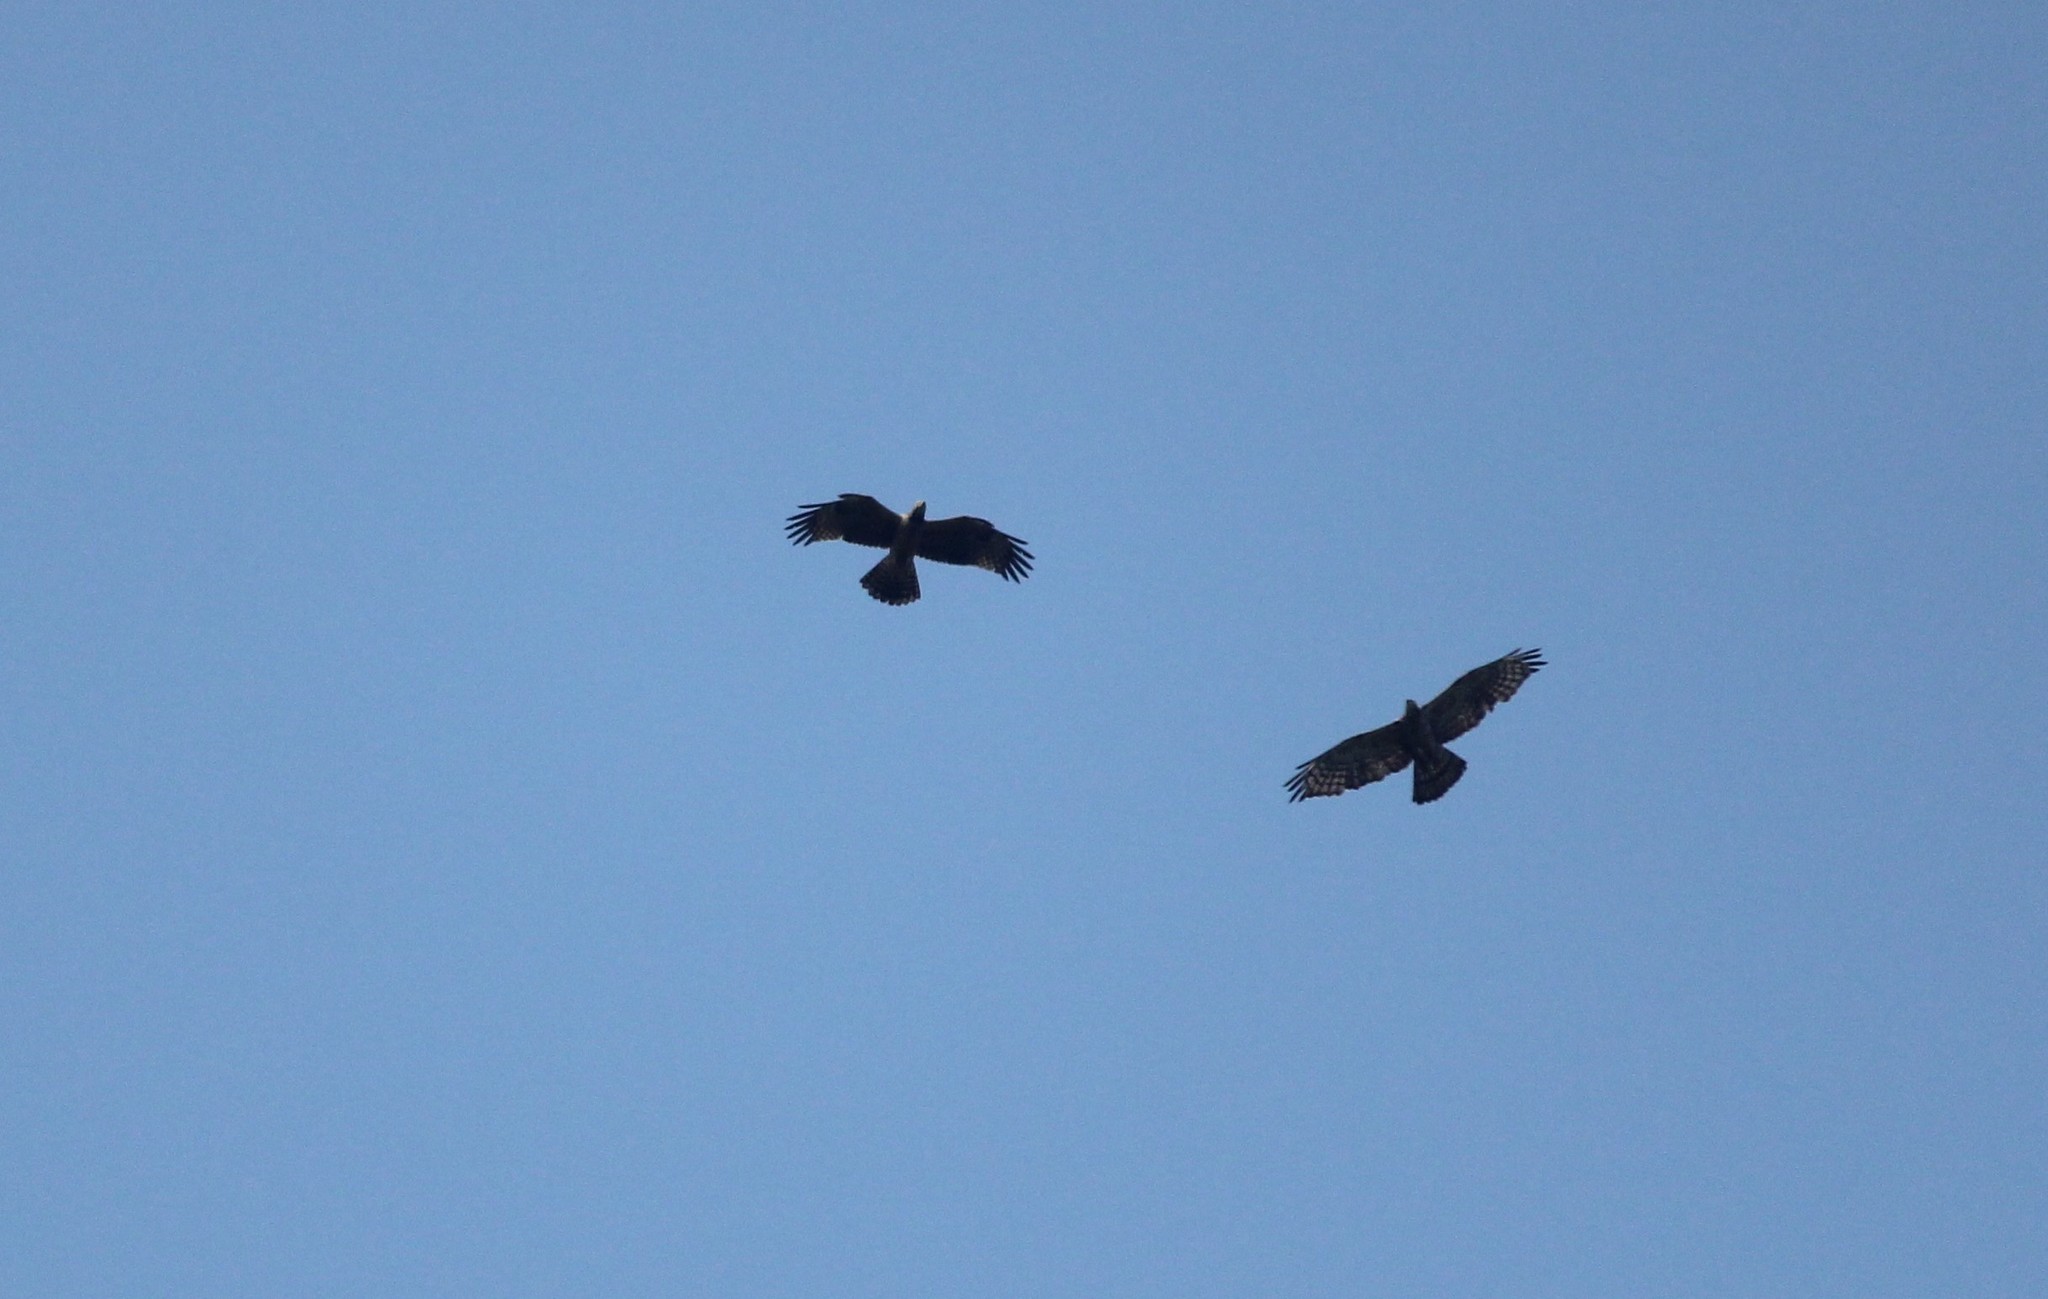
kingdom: Animalia
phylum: Chordata
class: Aves
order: Accipitriformes
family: Accipitridae
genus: Pernis
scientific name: Pernis ptilorhynchus
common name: Crested honey buzzard
